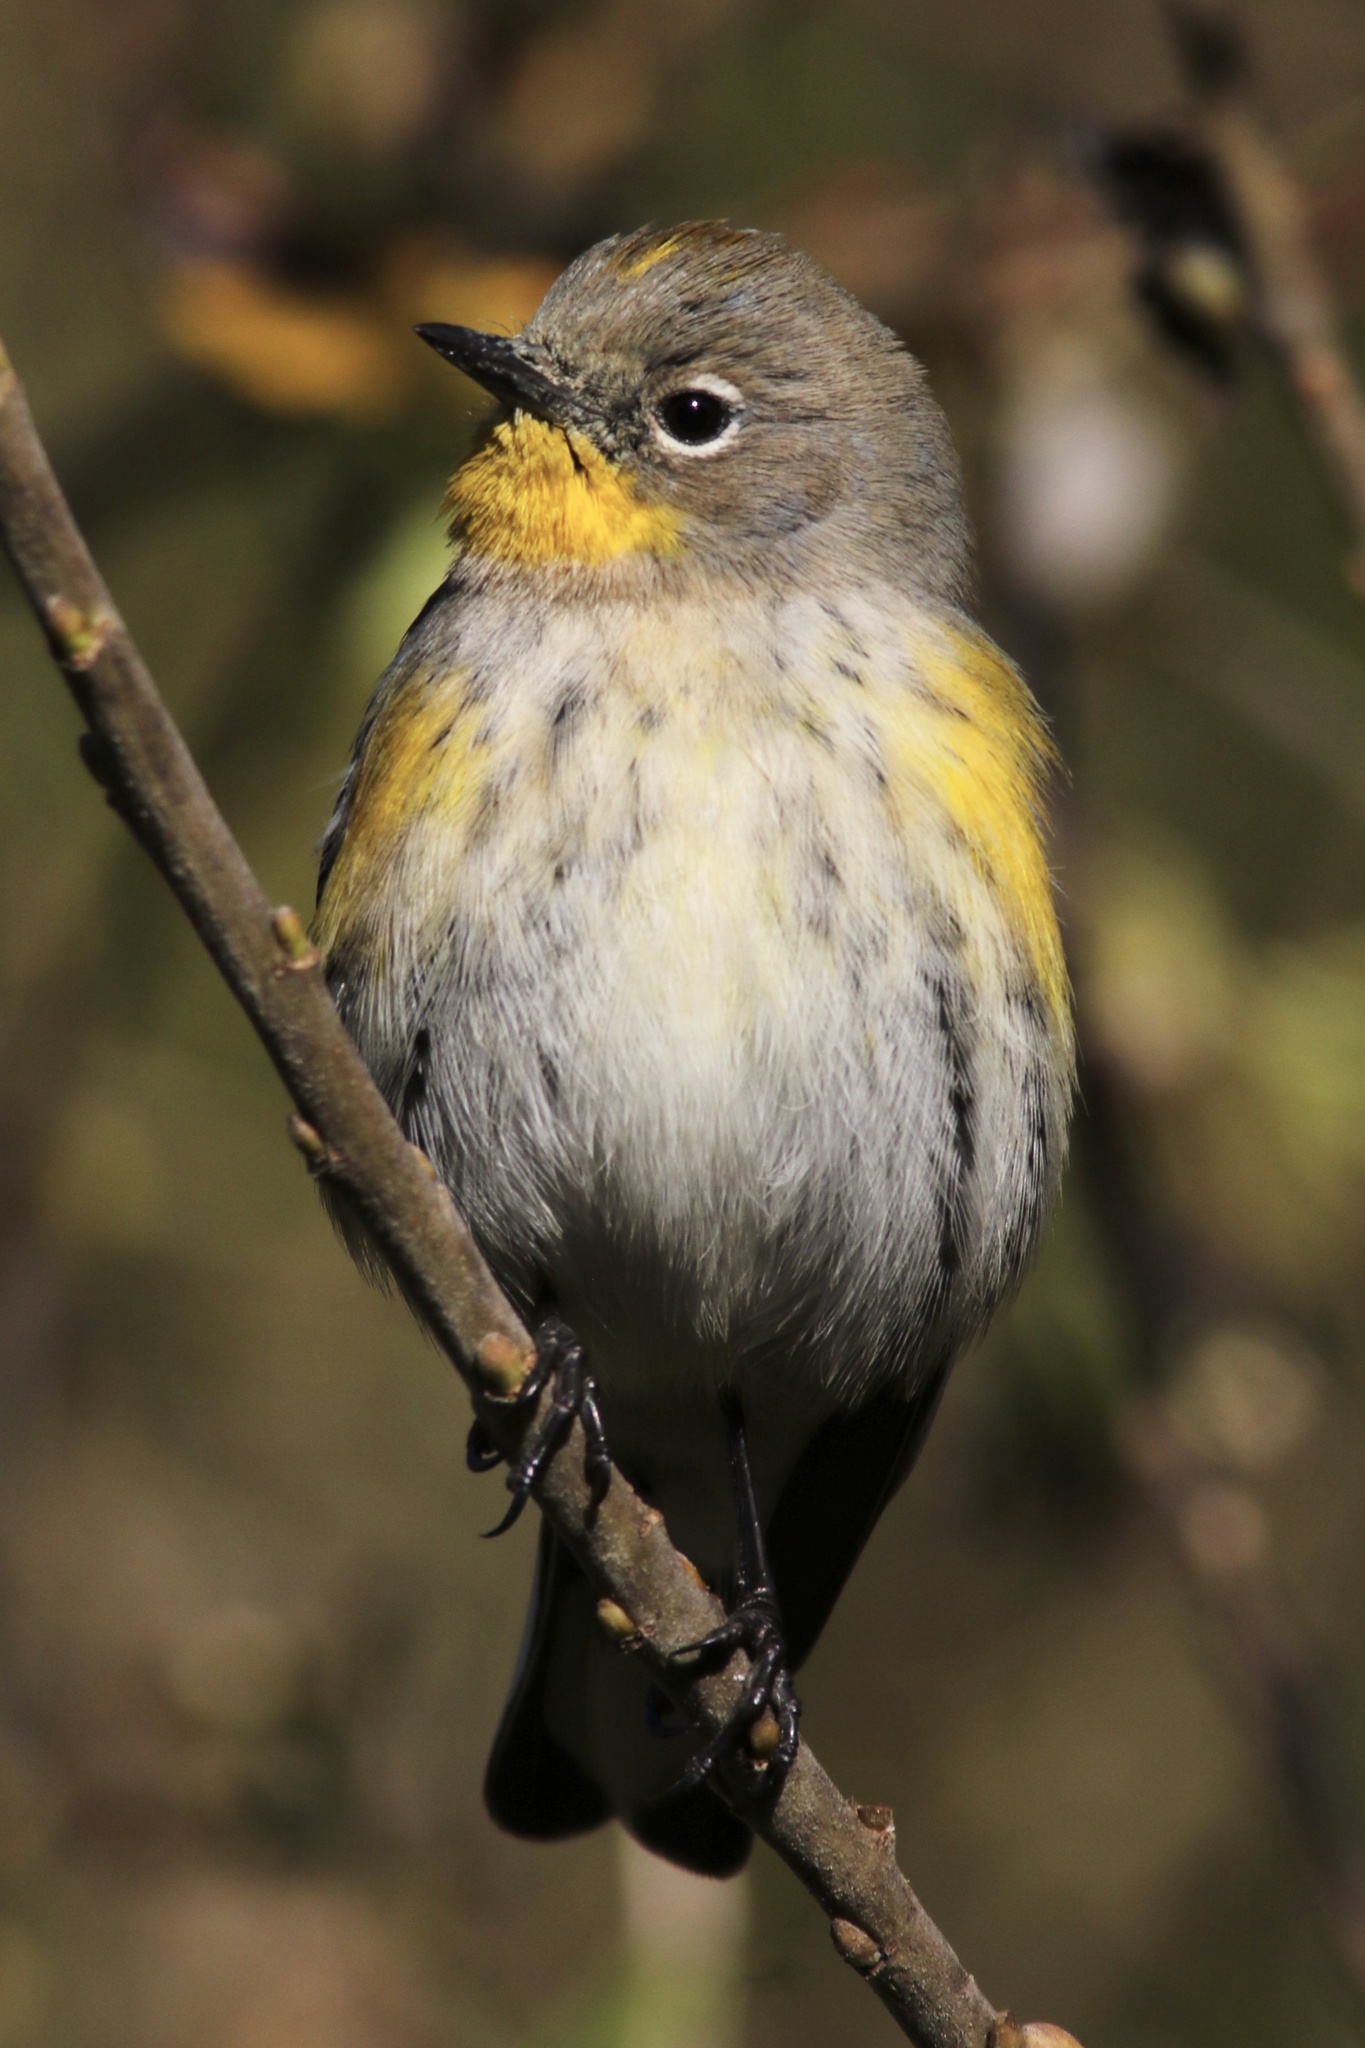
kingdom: Animalia
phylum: Chordata
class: Aves
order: Passeriformes
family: Parulidae
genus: Setophaga
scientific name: Setophaga coronata
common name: Myrtle warbler
